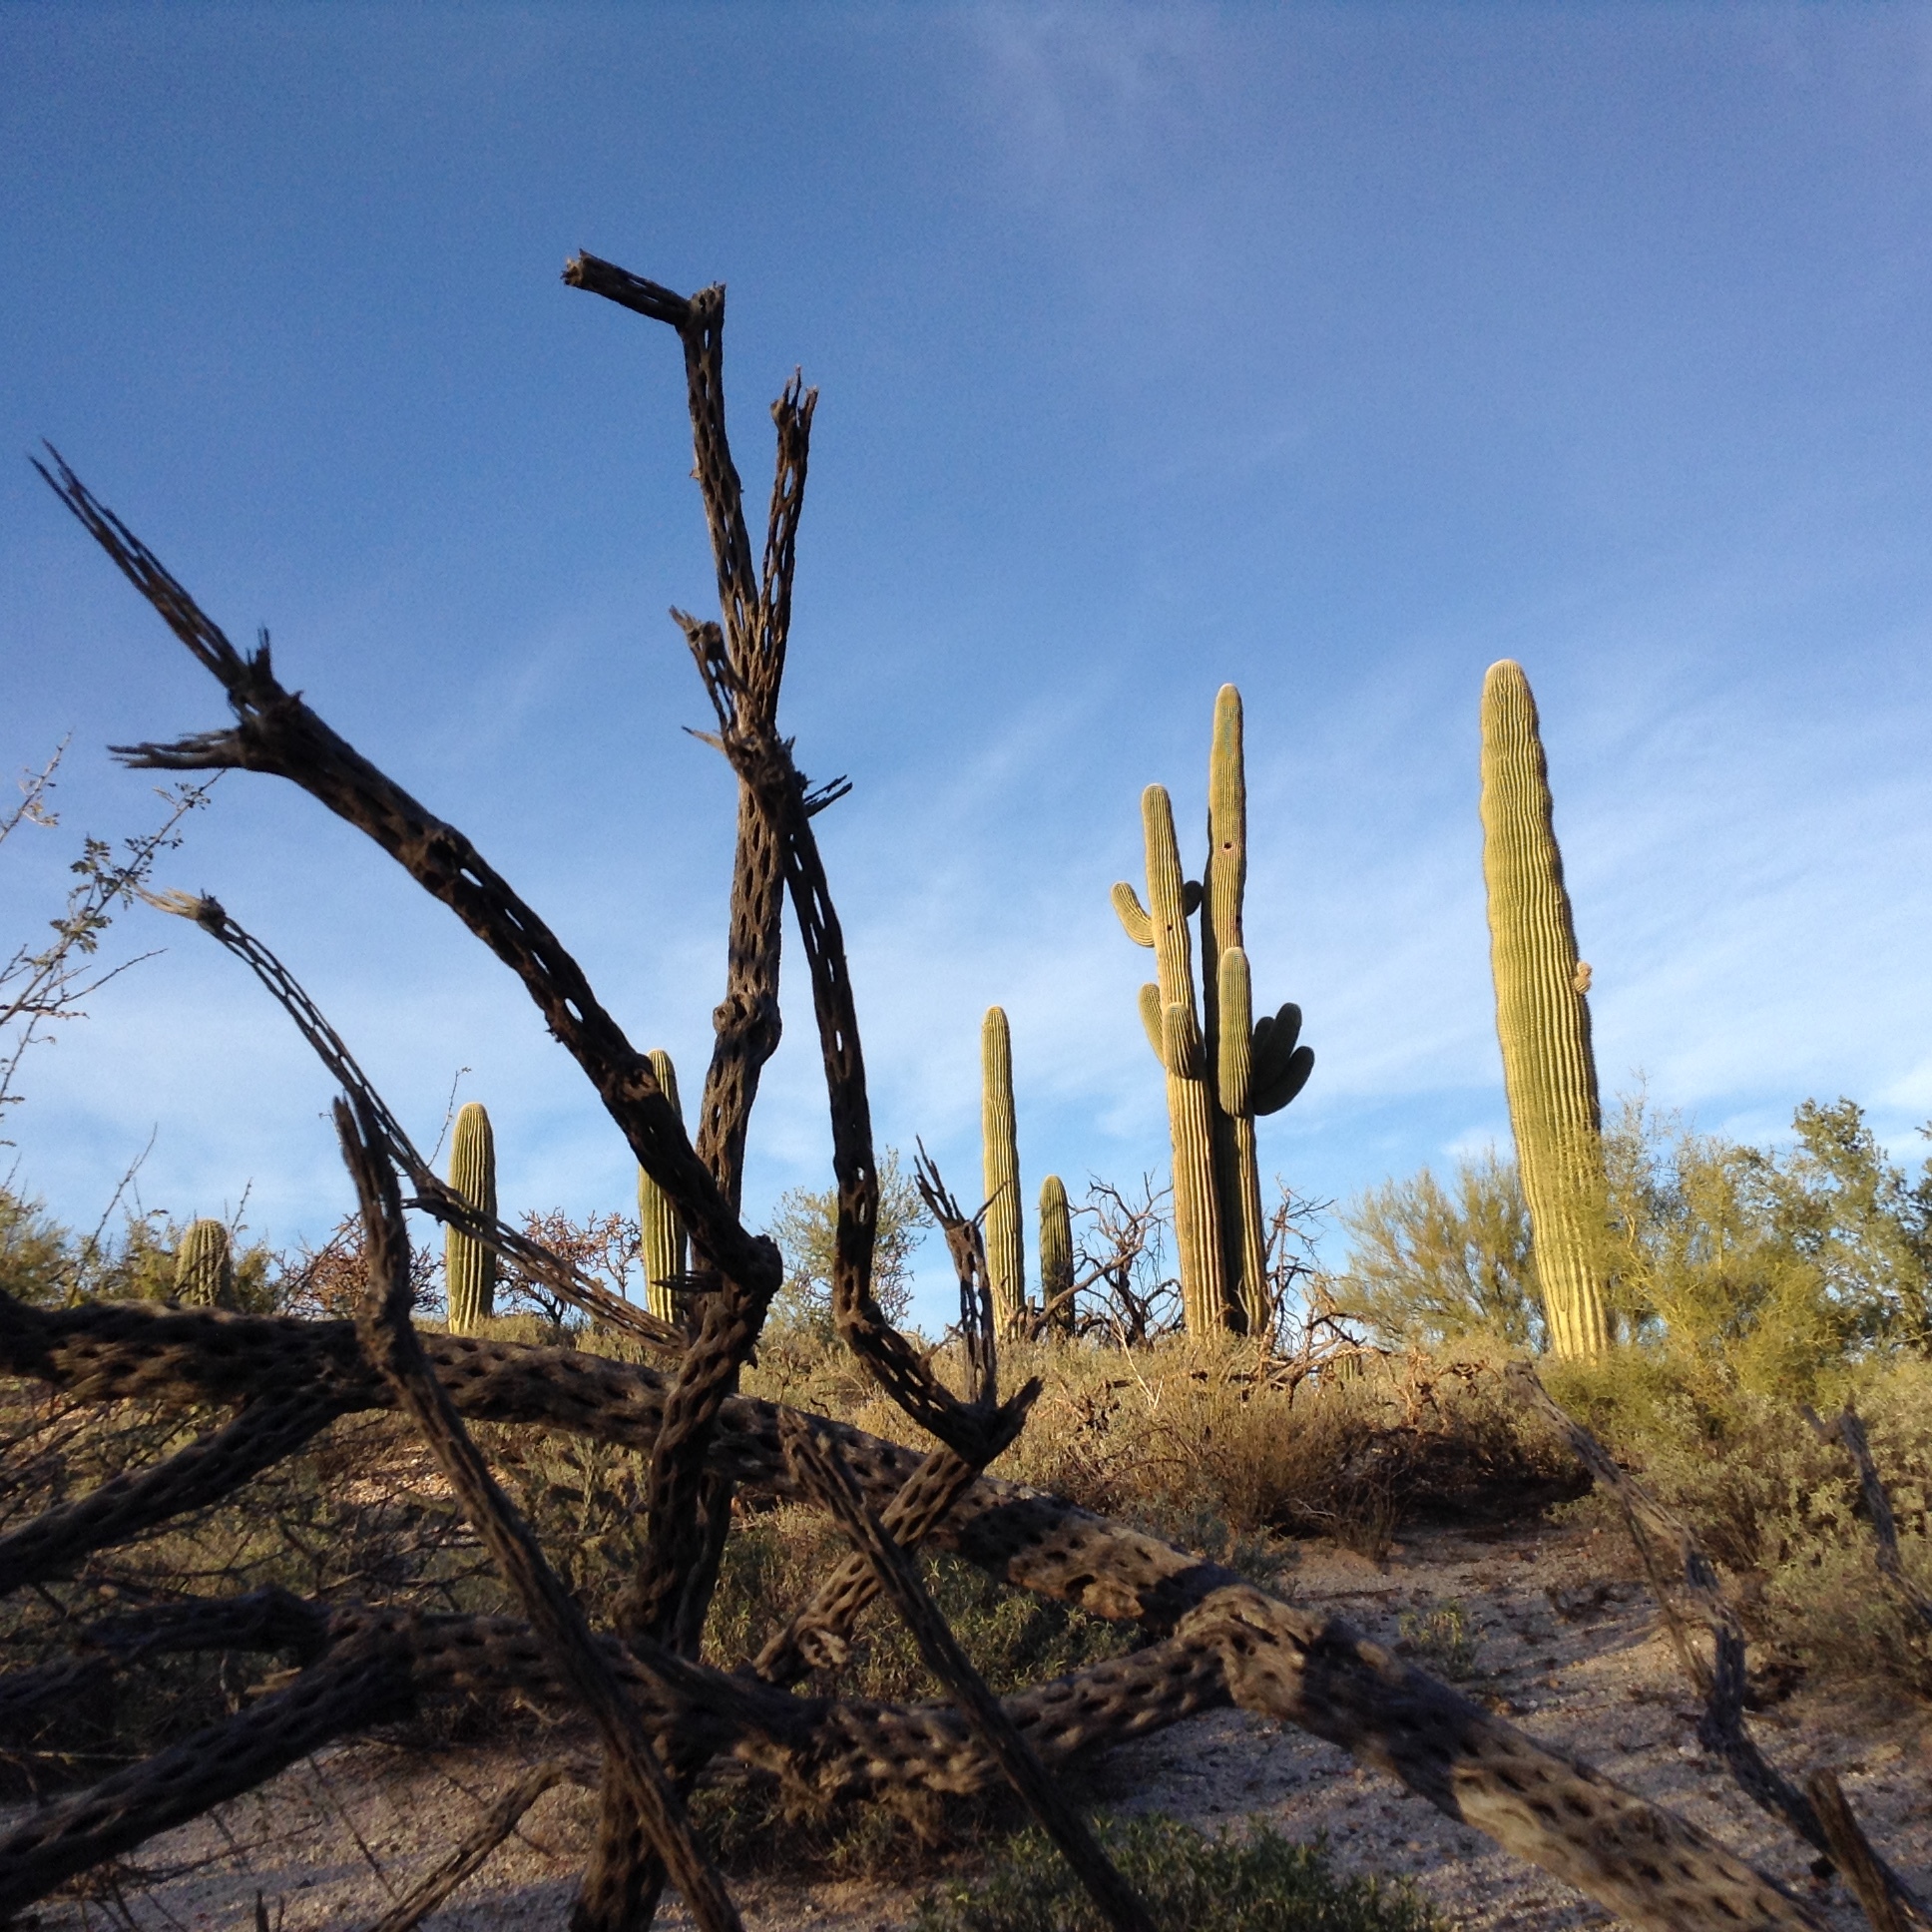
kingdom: Plantae
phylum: Tracheophyta
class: Magnoliopsida
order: Caryophyllales
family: Cactaceae
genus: Carnegiea
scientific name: Carnegiea gigantea
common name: Saguaro
